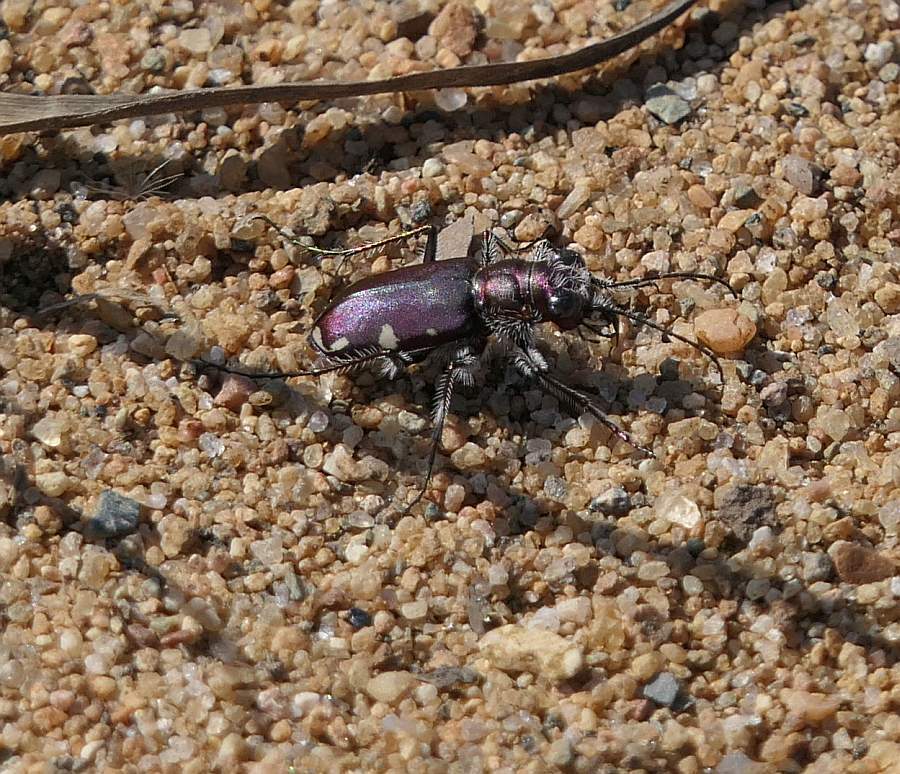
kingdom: Animalia
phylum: Arthropoda
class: Insecta
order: Coleoptera
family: Carabidae
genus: Cicindela
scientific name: Cicindela scutellaris
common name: Festive tiger beetle
